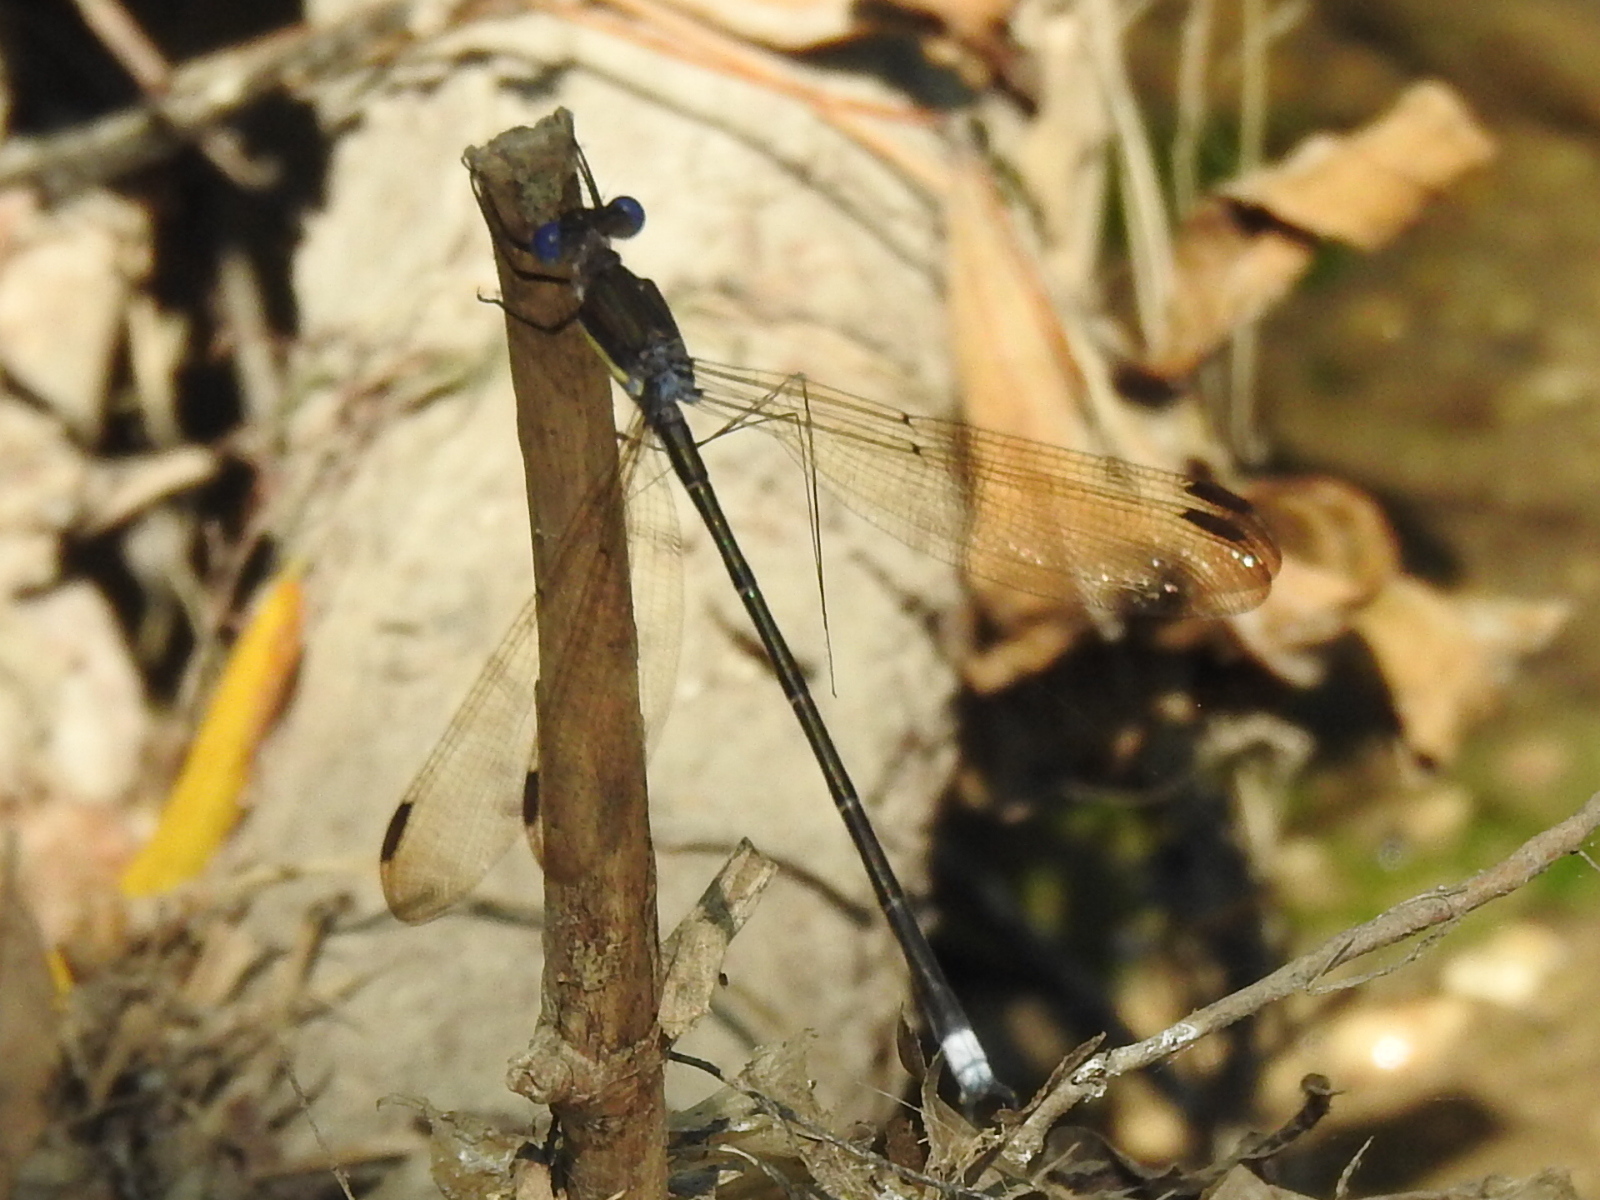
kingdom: Animalia
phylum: Arthropoda
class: Insecta
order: Odonata
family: Lestidae
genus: Archilestes
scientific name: Archilestes grandis
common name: Great spreadwing
